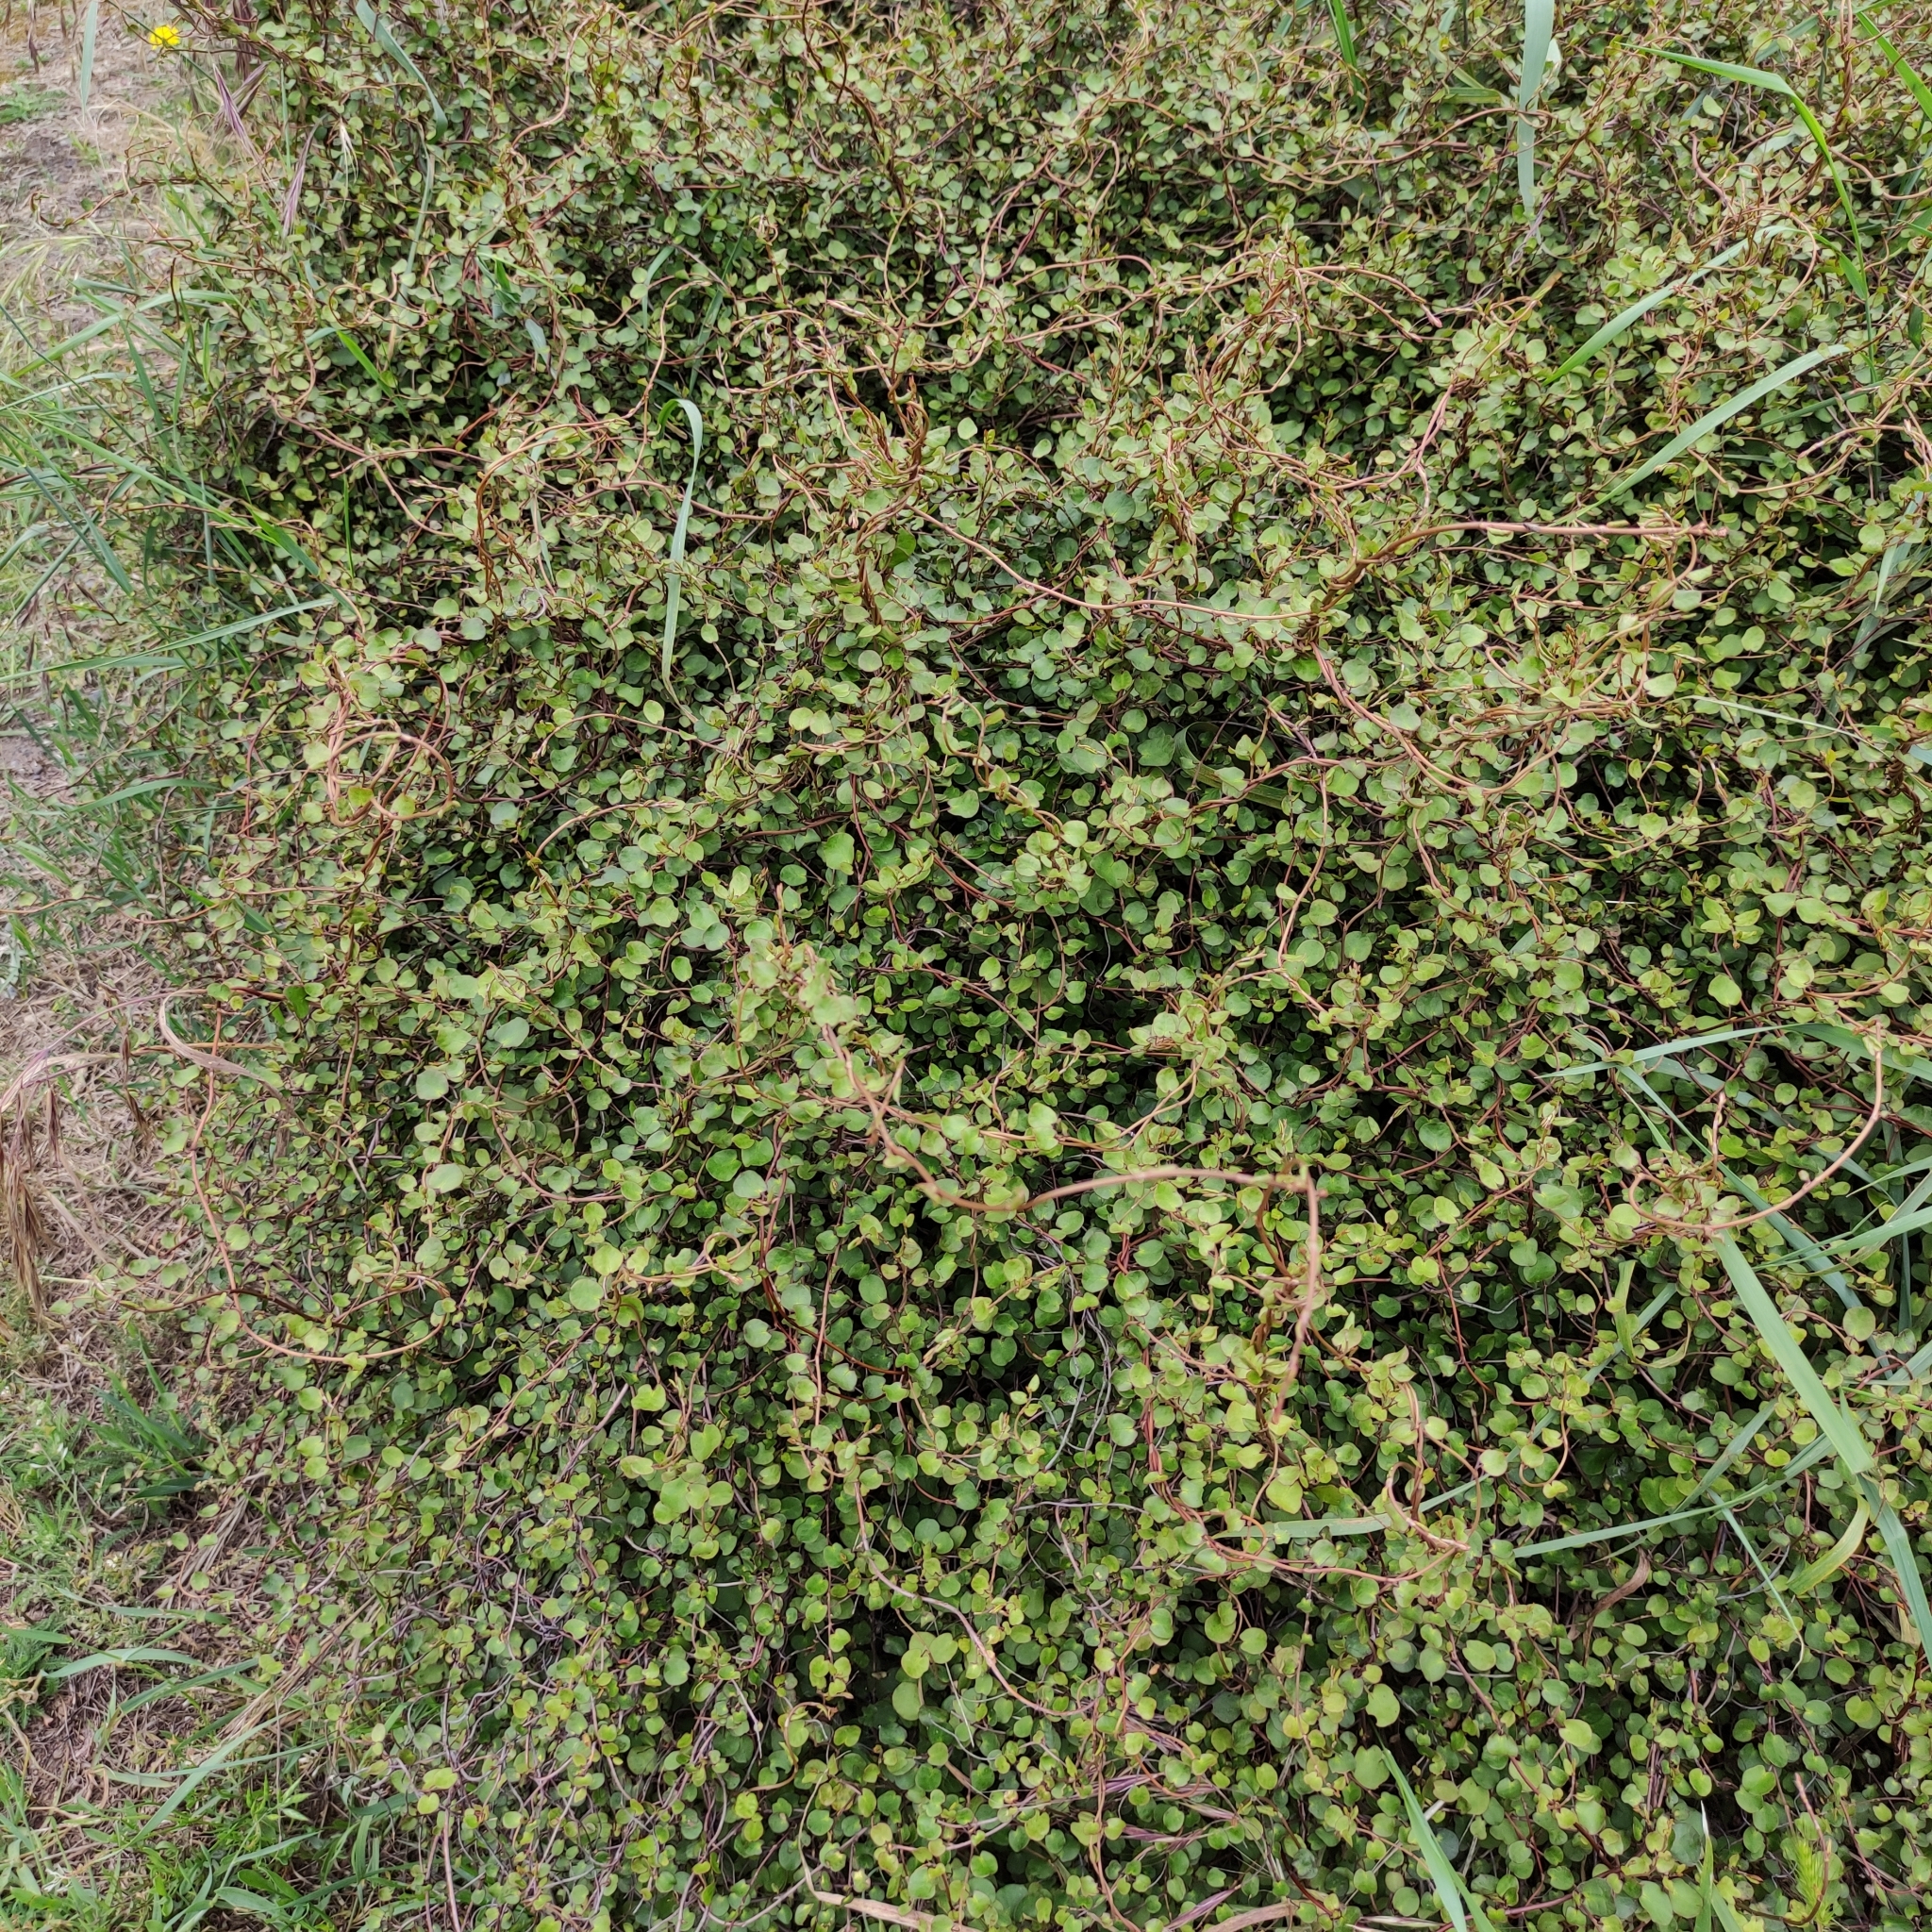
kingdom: Plantae
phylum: Tracheophyta
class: Magnoliopsida
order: Caryophyllales
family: Polygonaceae
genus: Muehlenbeckia
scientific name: Muehlenbeckia complexa
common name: Wireplant
